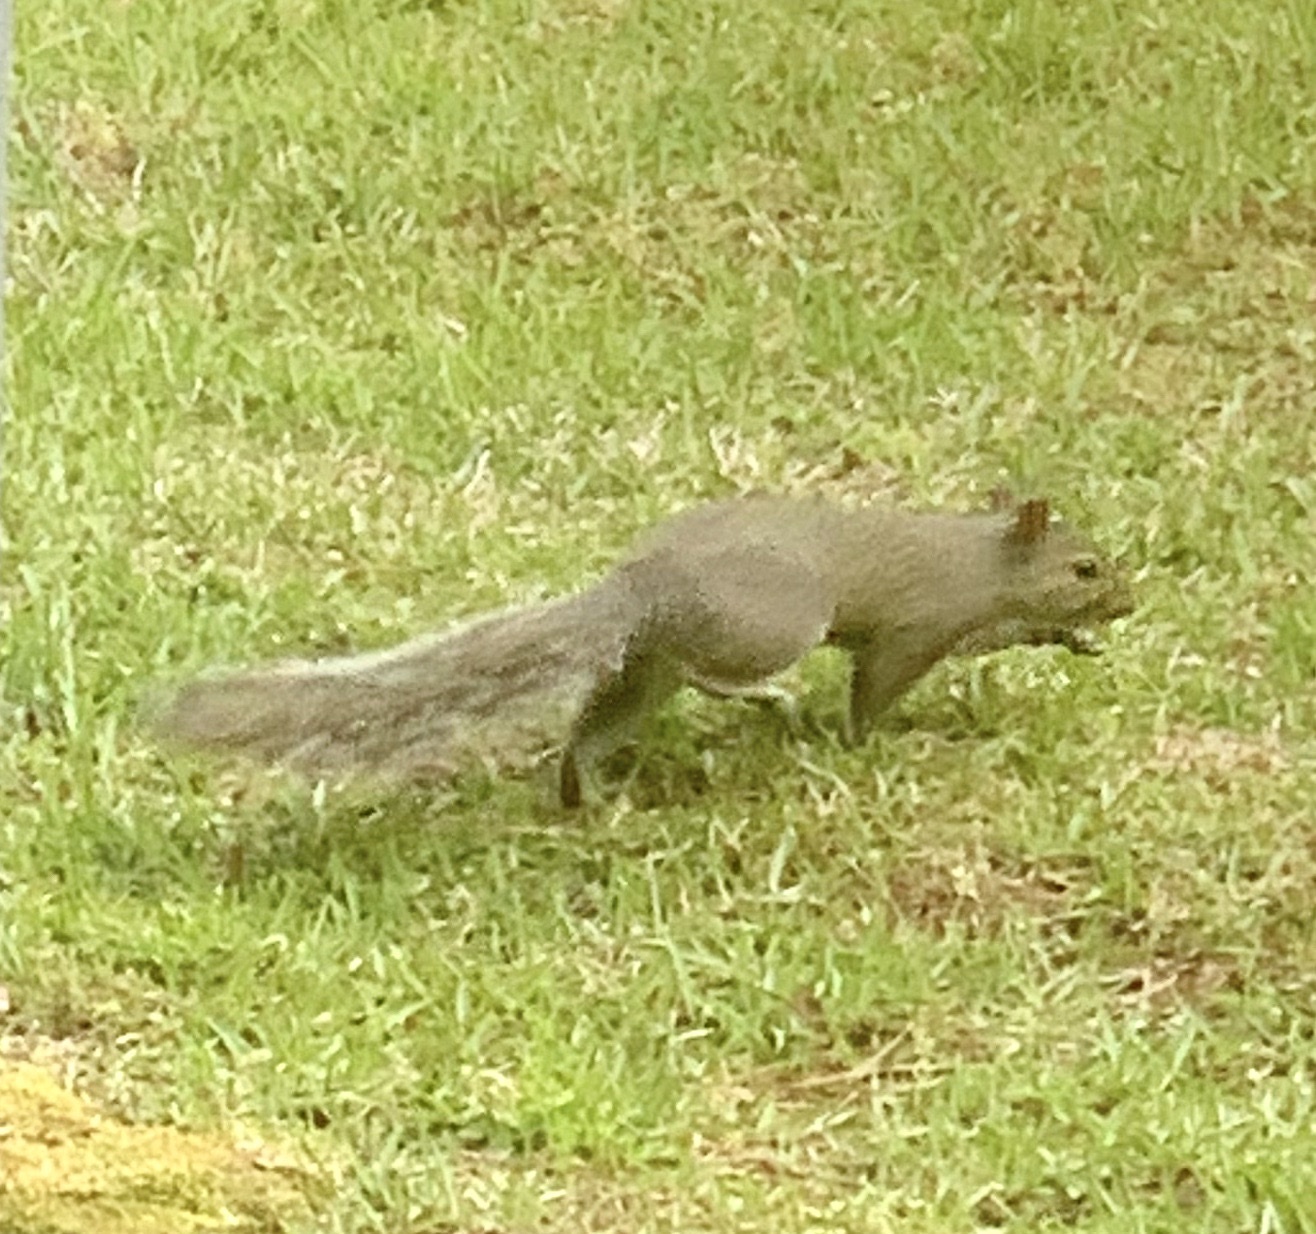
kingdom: Animalia
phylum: Chordata
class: Mammalia
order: Rodentia
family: Sciuridae
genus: Sciurus
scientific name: Sciurus carolinensis
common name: Eastern gray squirrel
